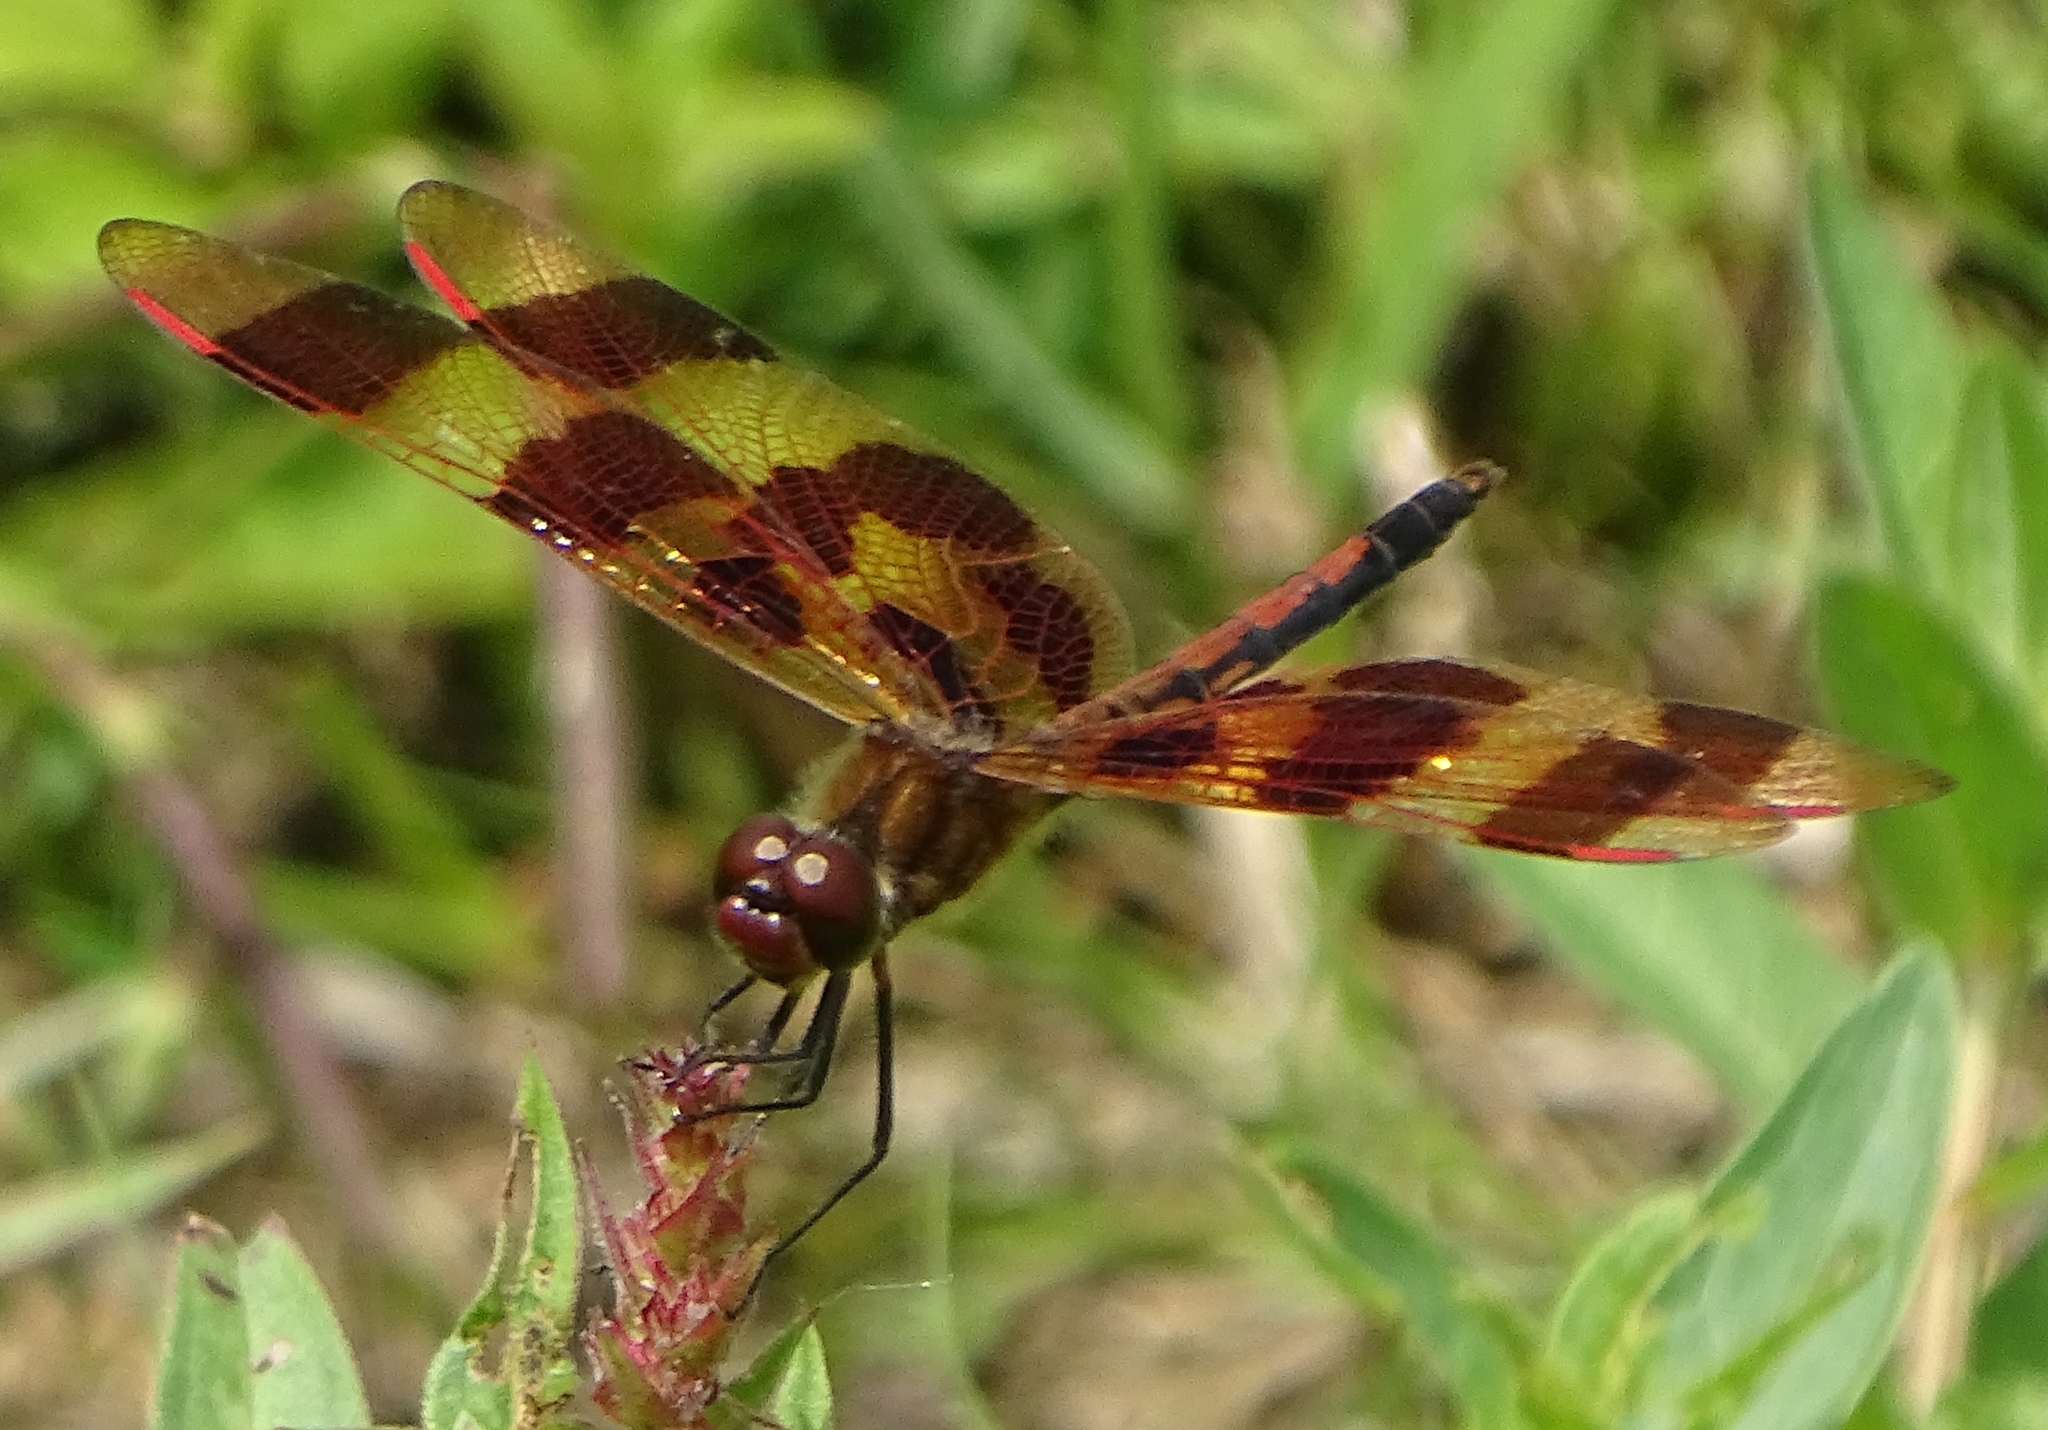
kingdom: Animalia
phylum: Arthropoda
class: Insecta
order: Odonata
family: Libellulidae
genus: Celithemis
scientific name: Celithemis eponina
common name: Halloween pennant
